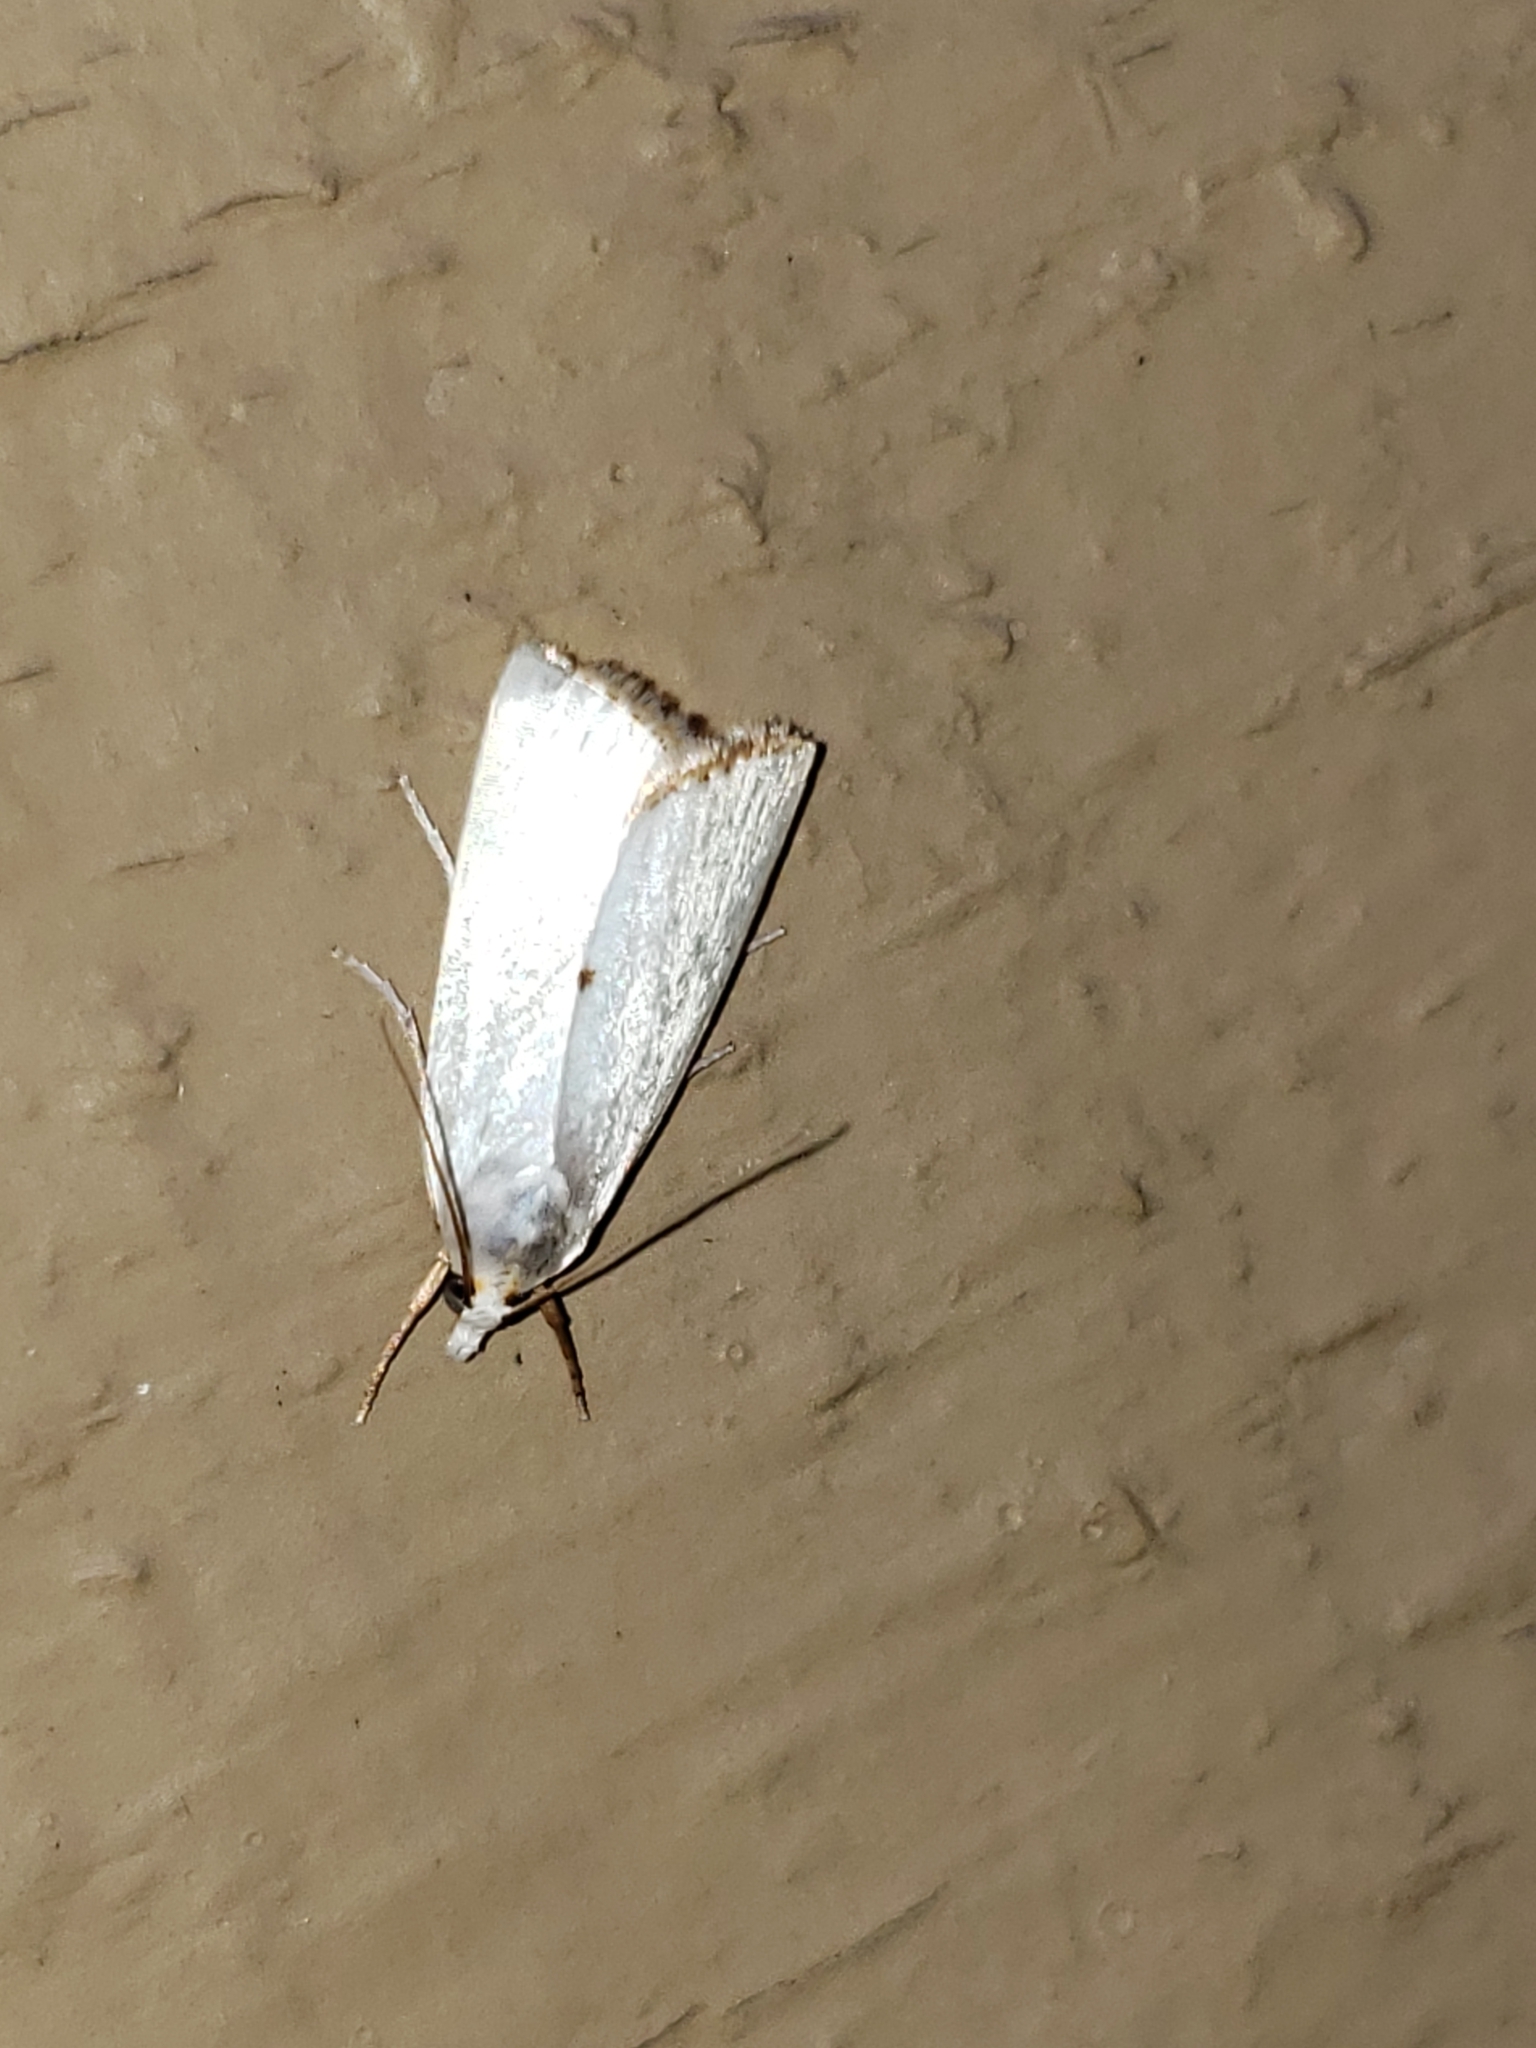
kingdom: Animalia
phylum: Arthropoda
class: Insecta
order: Lepidoptera
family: Crambidae
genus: Argyria
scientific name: Argyria nivalis
